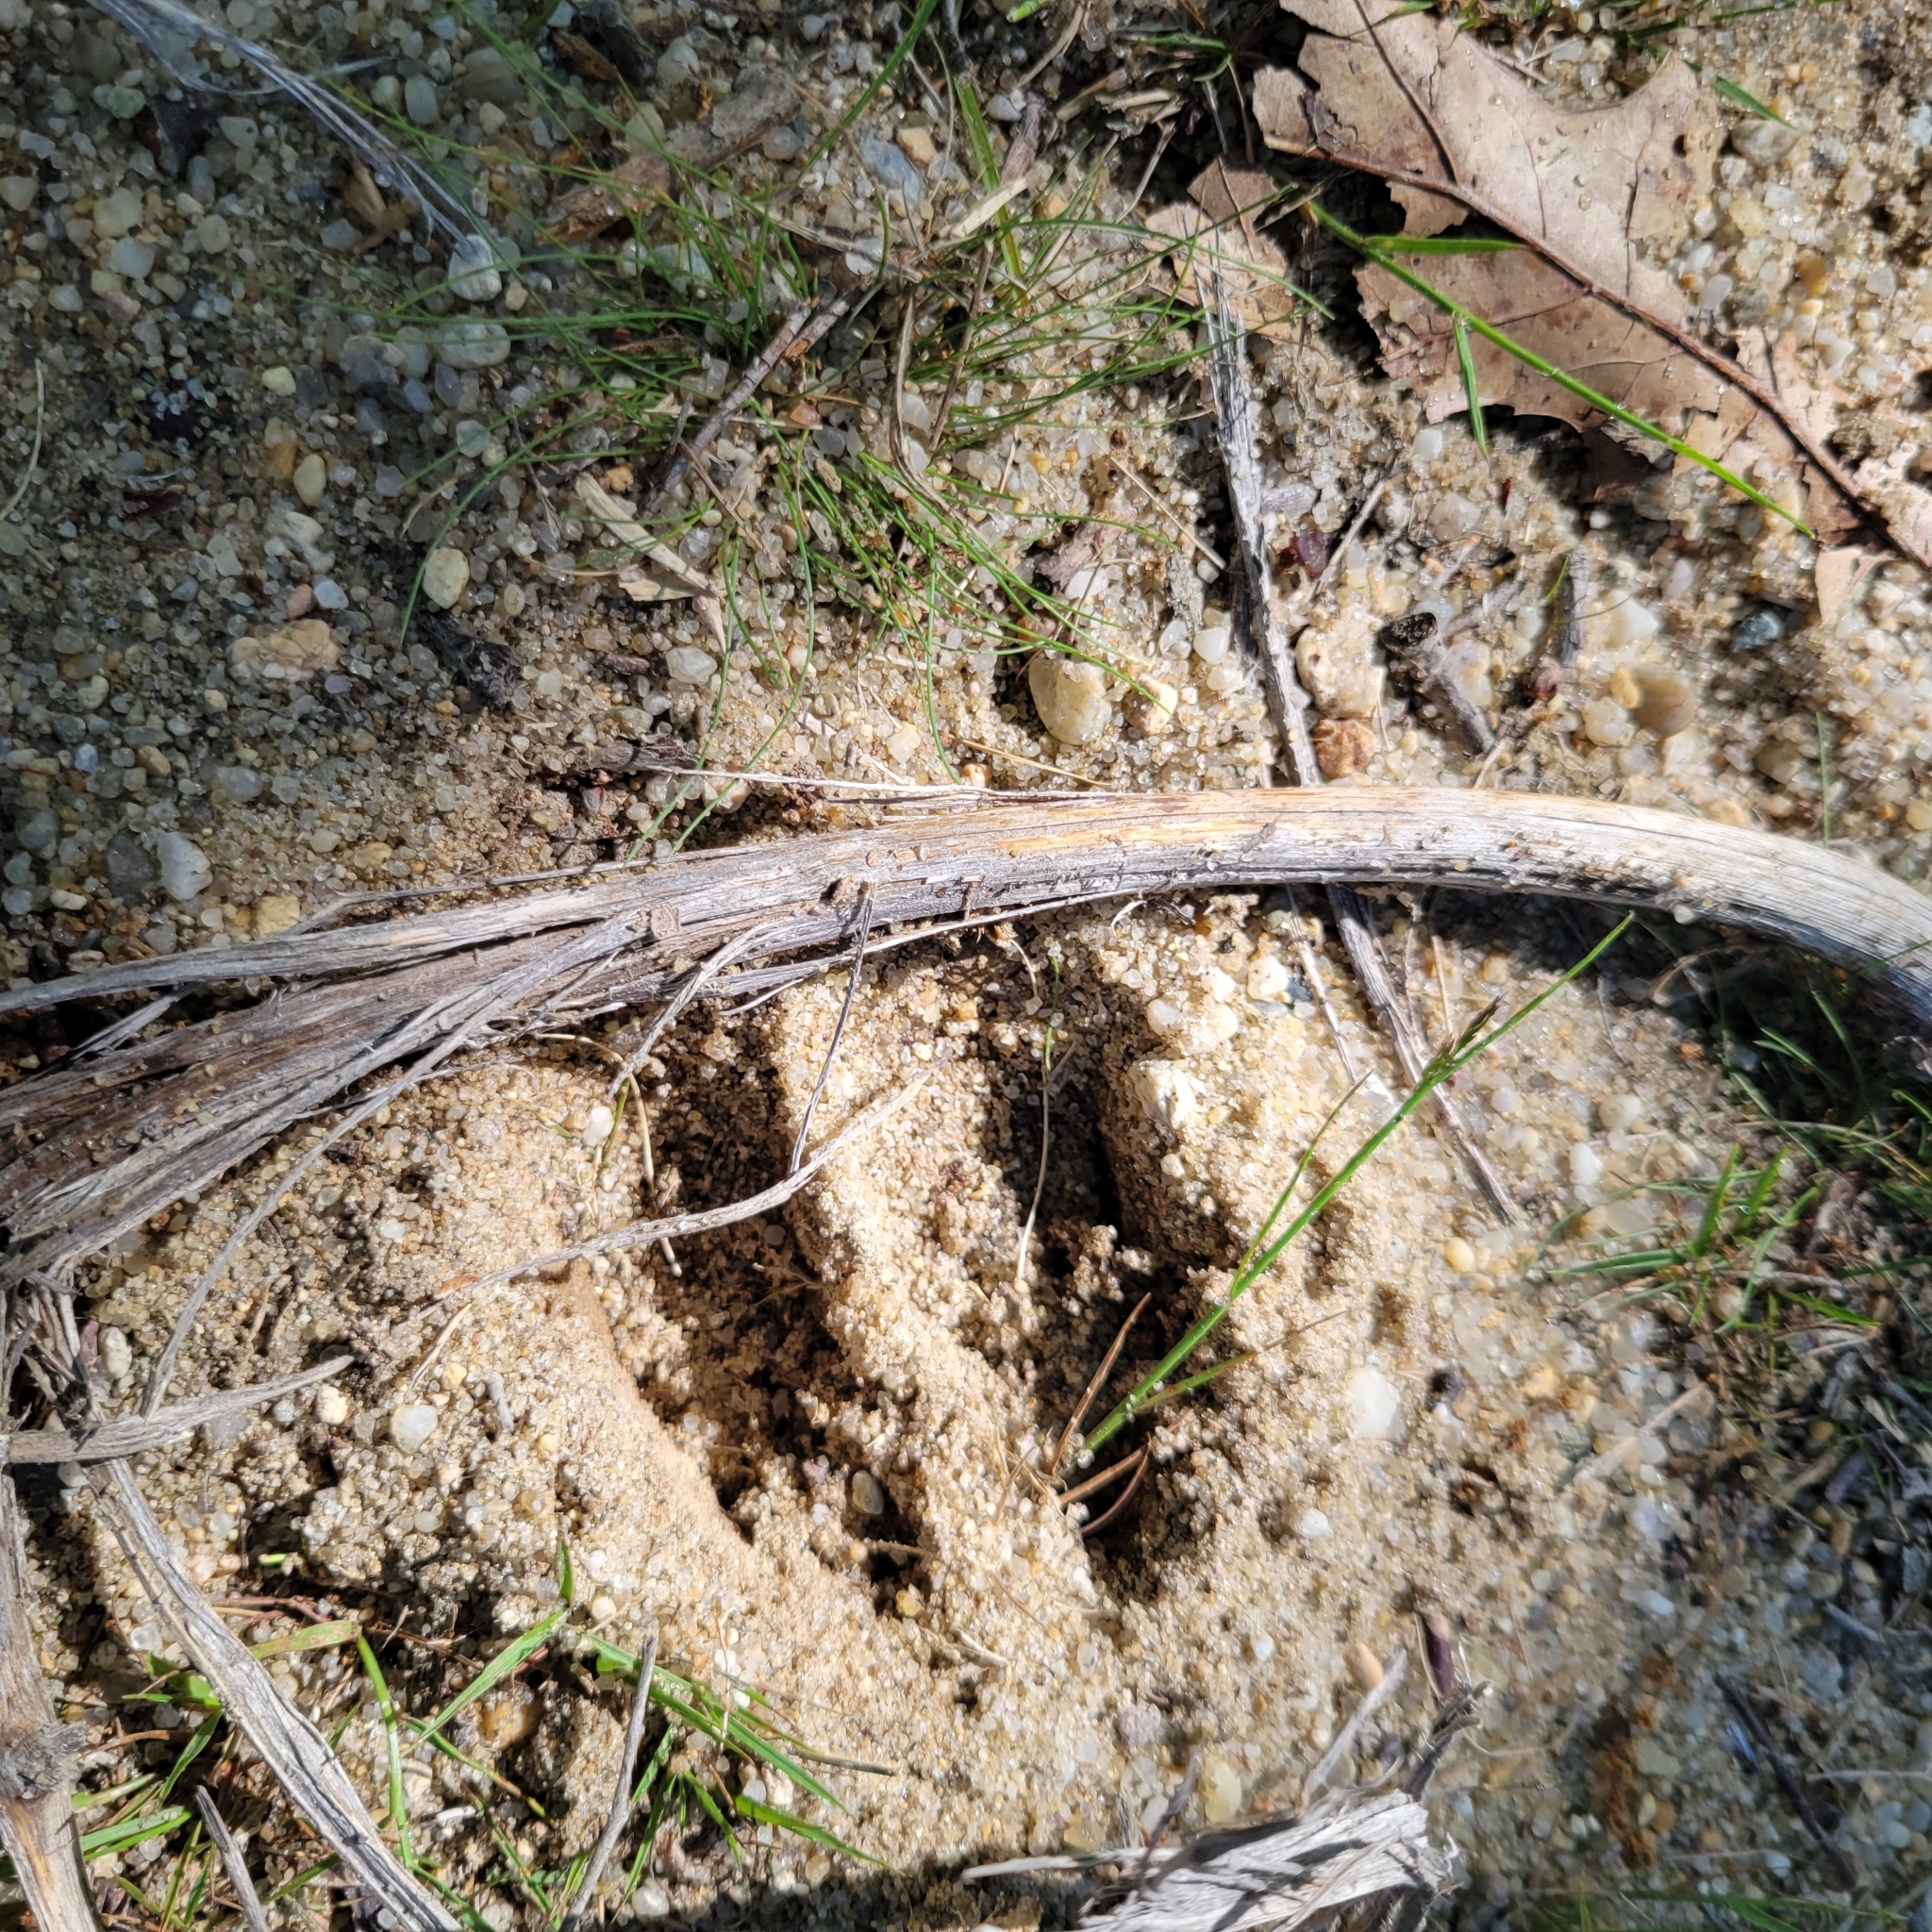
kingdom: Animalia
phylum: Chordata
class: Mammalia
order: Artiodactyla
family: Cervidae
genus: Odocoileus
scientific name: Odocoileus virginianus
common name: White-tailed deer
